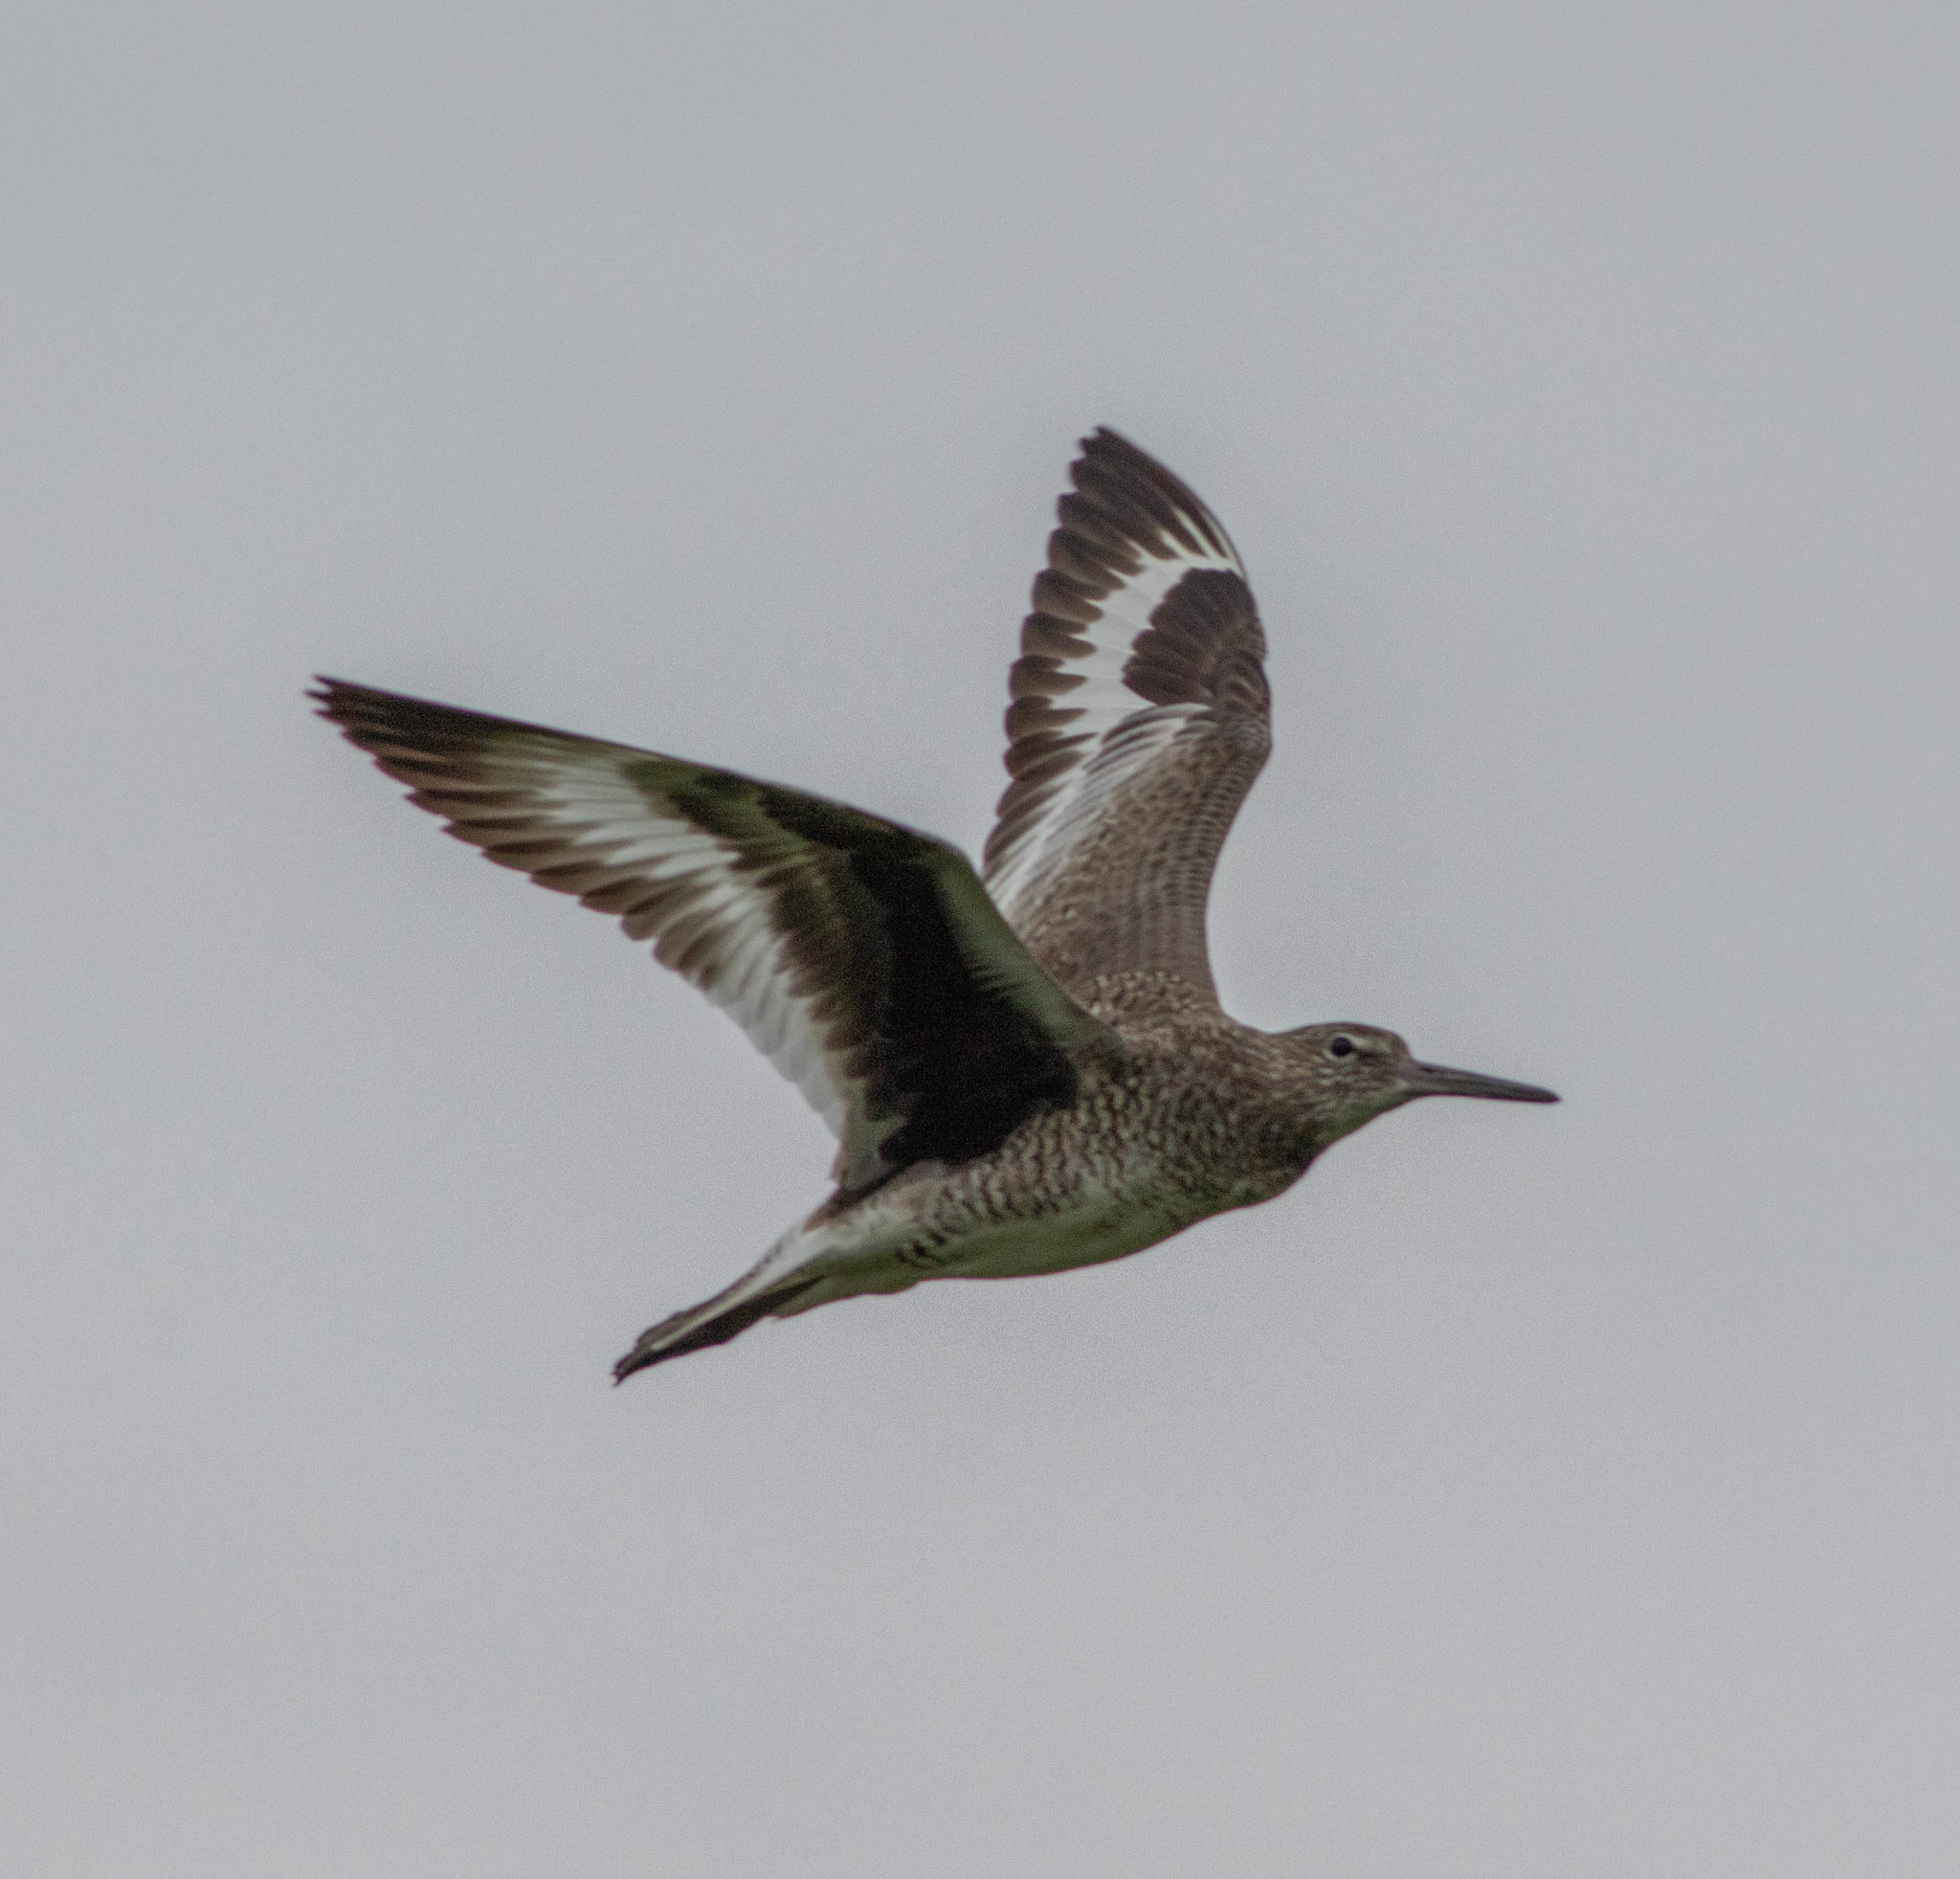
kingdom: Animalia
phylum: Chordata
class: Aves
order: Charadriiformes
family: Scolopacidae
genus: Tringa
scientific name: Tringa semipalmata
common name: Willet
